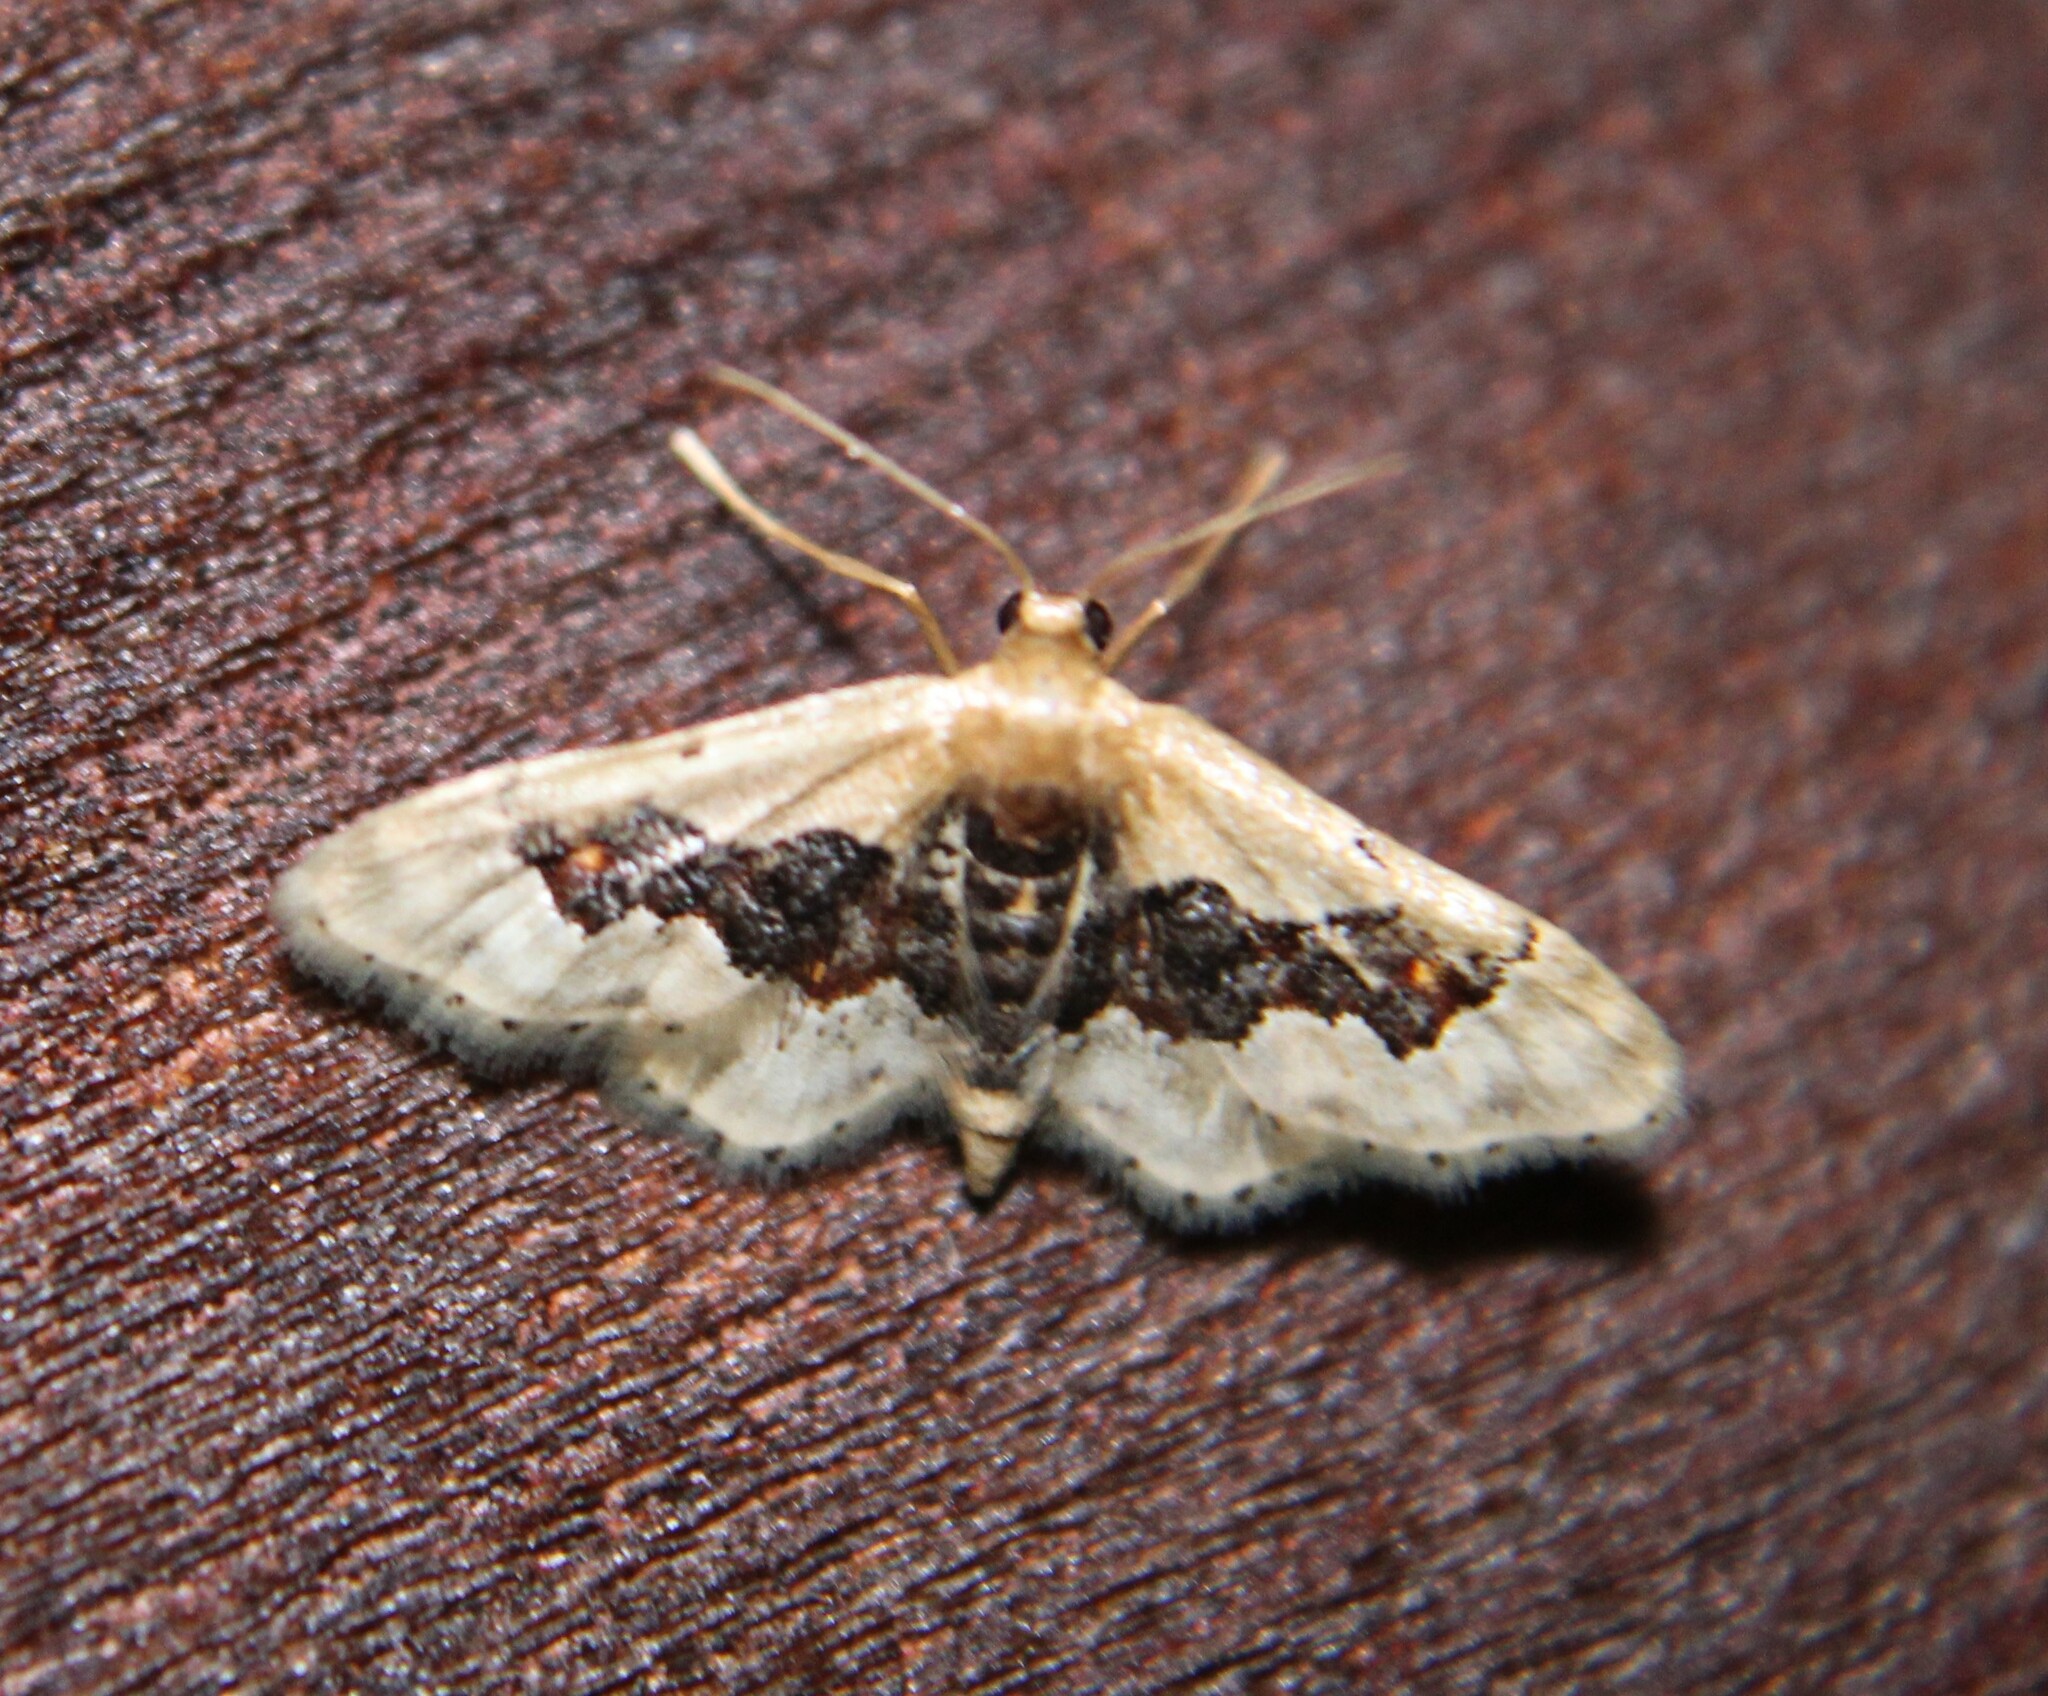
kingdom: Animalia
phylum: Arthropoda
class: Insecta
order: Lepidoptera
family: Geometridae
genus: Idaea
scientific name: Idaea gemmata
